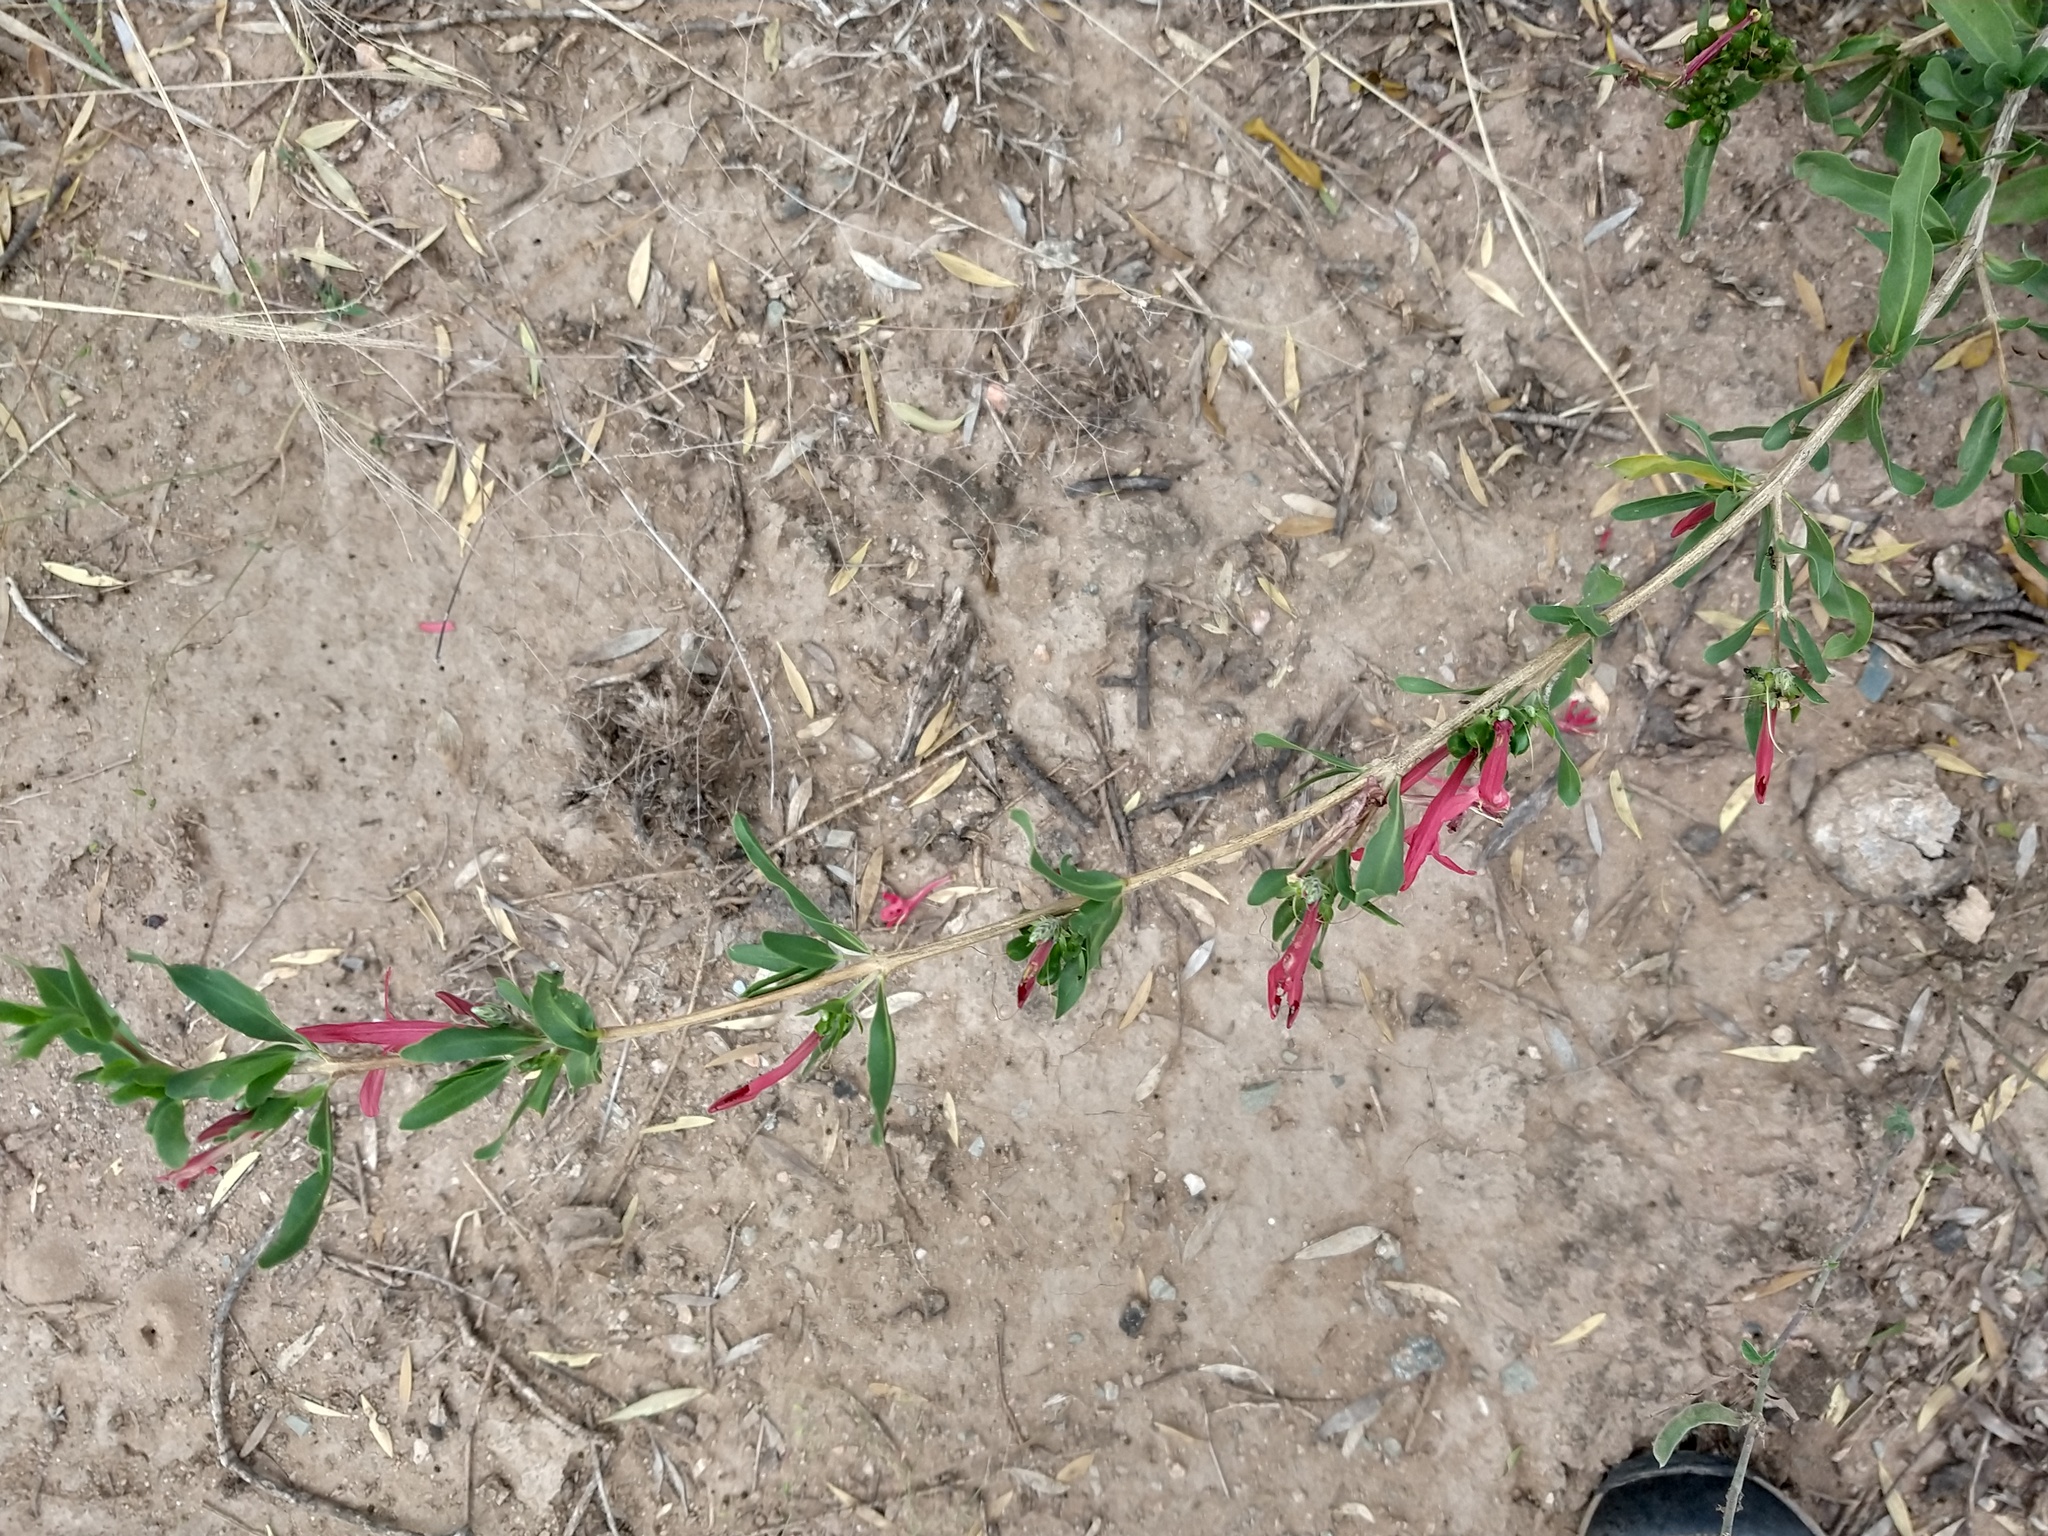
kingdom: Plantae
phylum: Tracheophyta
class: Magnoliopsida
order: Lamiales
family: Acanthaceae
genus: Justicia
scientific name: Justicia xylosteoides
